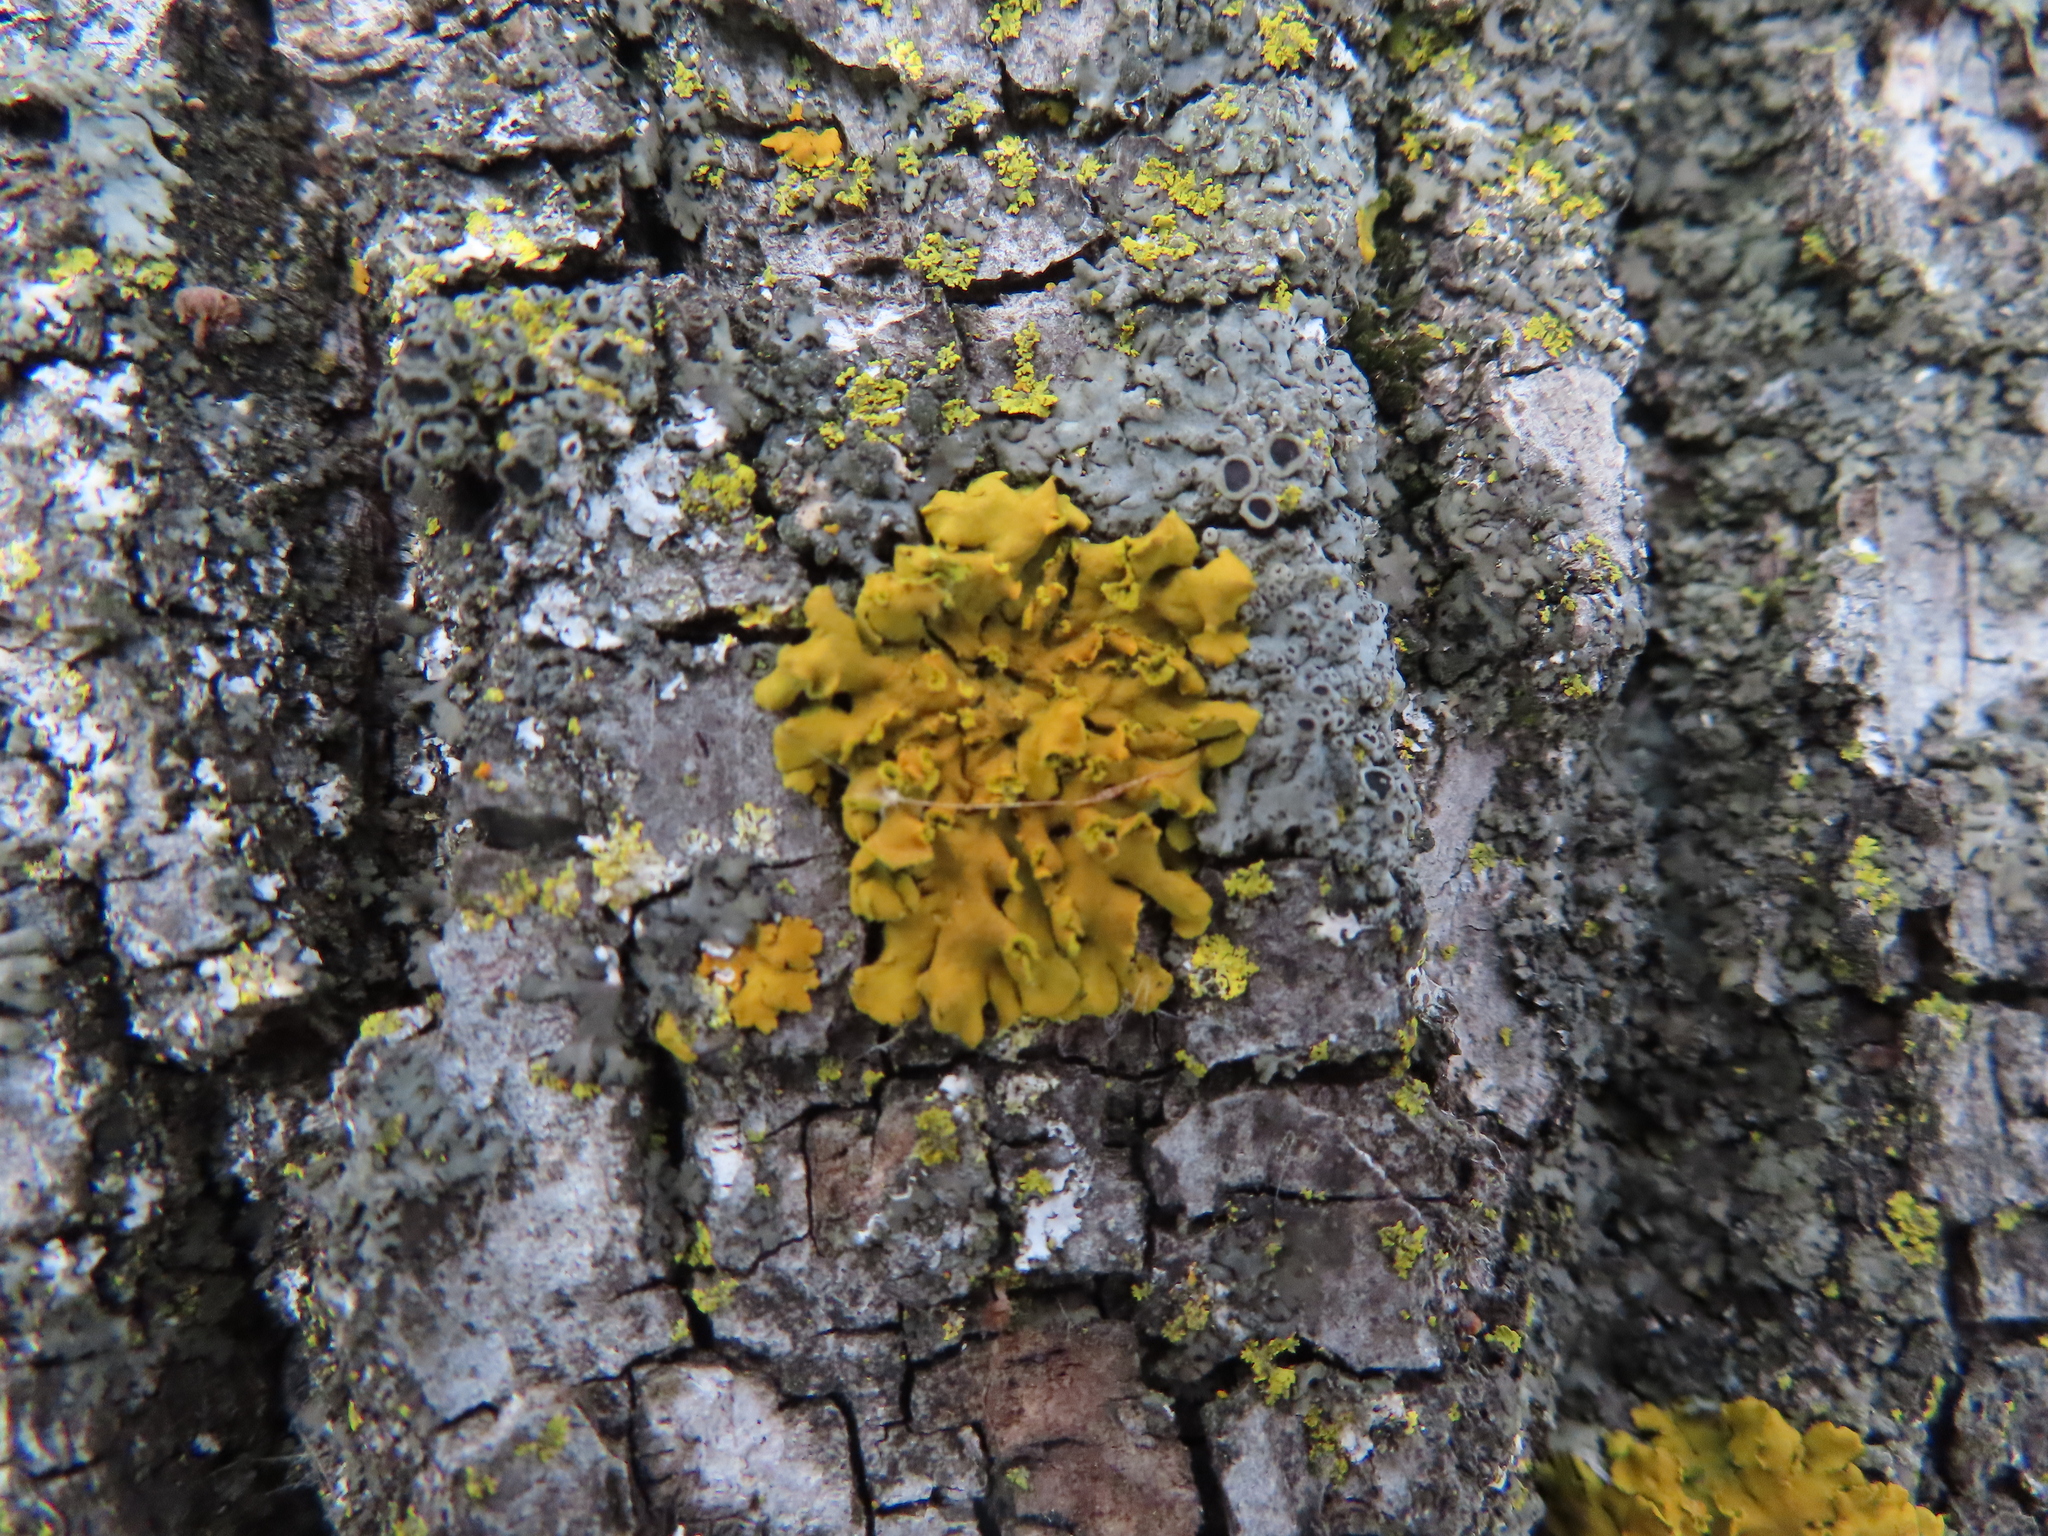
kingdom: Fungi
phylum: Ascomycota
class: Lecanoromycetes
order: Teloschistales
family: Teloschistaceae
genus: Oxneria
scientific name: Oxneria fallax
